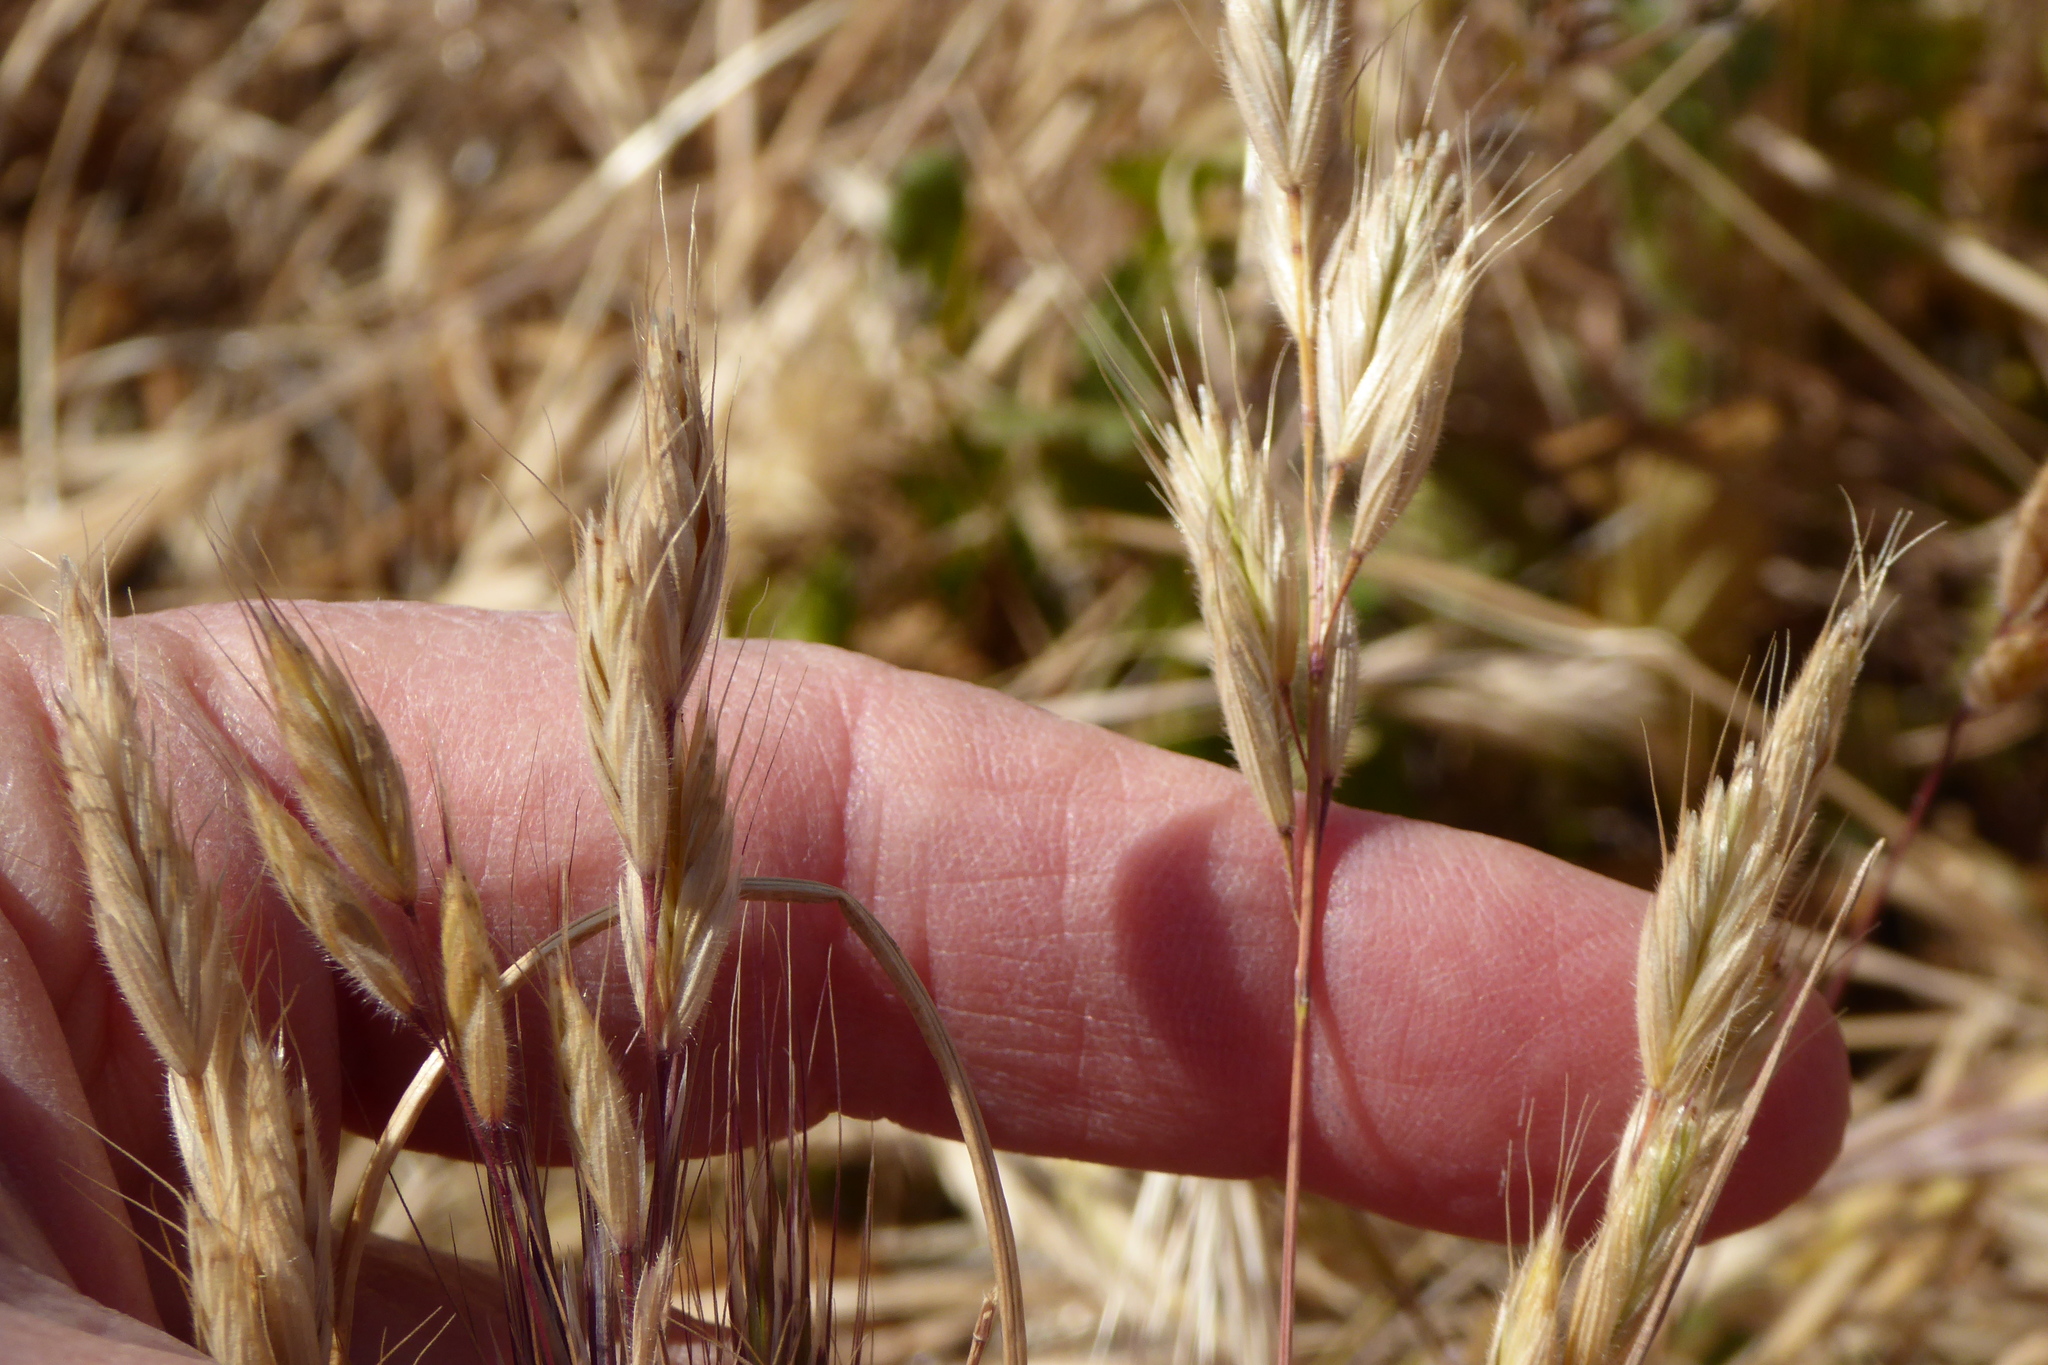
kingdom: Plantae
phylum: Tracheophyta
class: Liliopsida
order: Poales
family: Poaceae
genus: Bromus
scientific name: Bromus hordeaceus
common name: Soft brome
